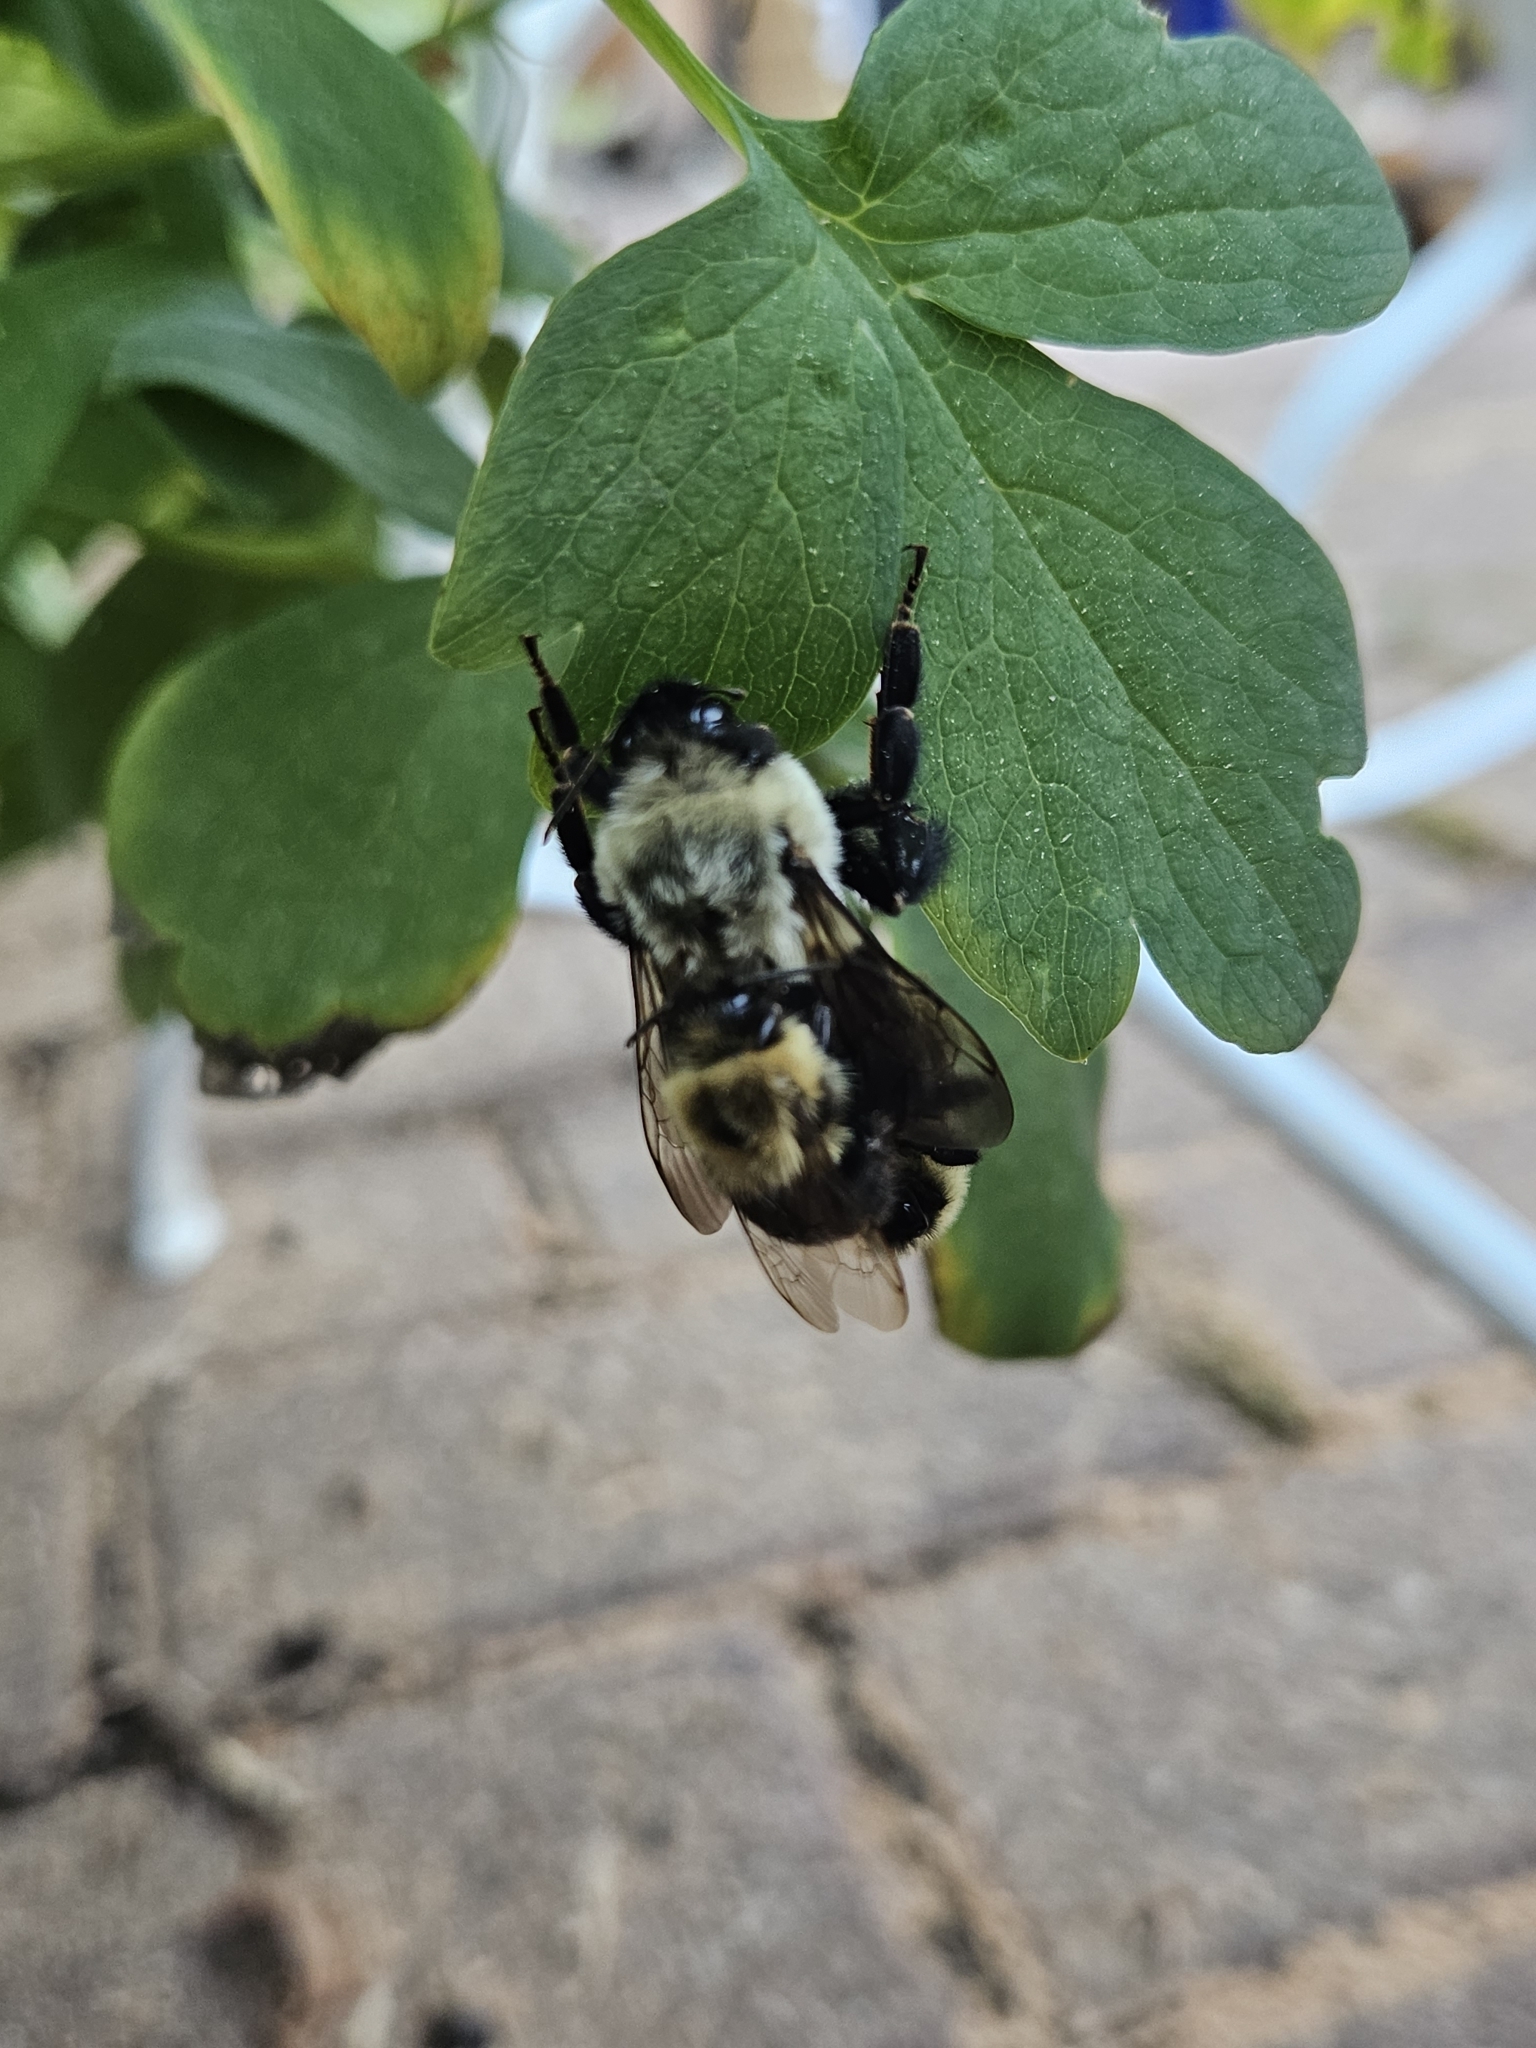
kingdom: Animalia
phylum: Arthropoda
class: Insecta
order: Hymenoptera
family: Apidae
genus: Bombus
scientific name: Bombus impatiens
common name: Common eastern bumble bee
